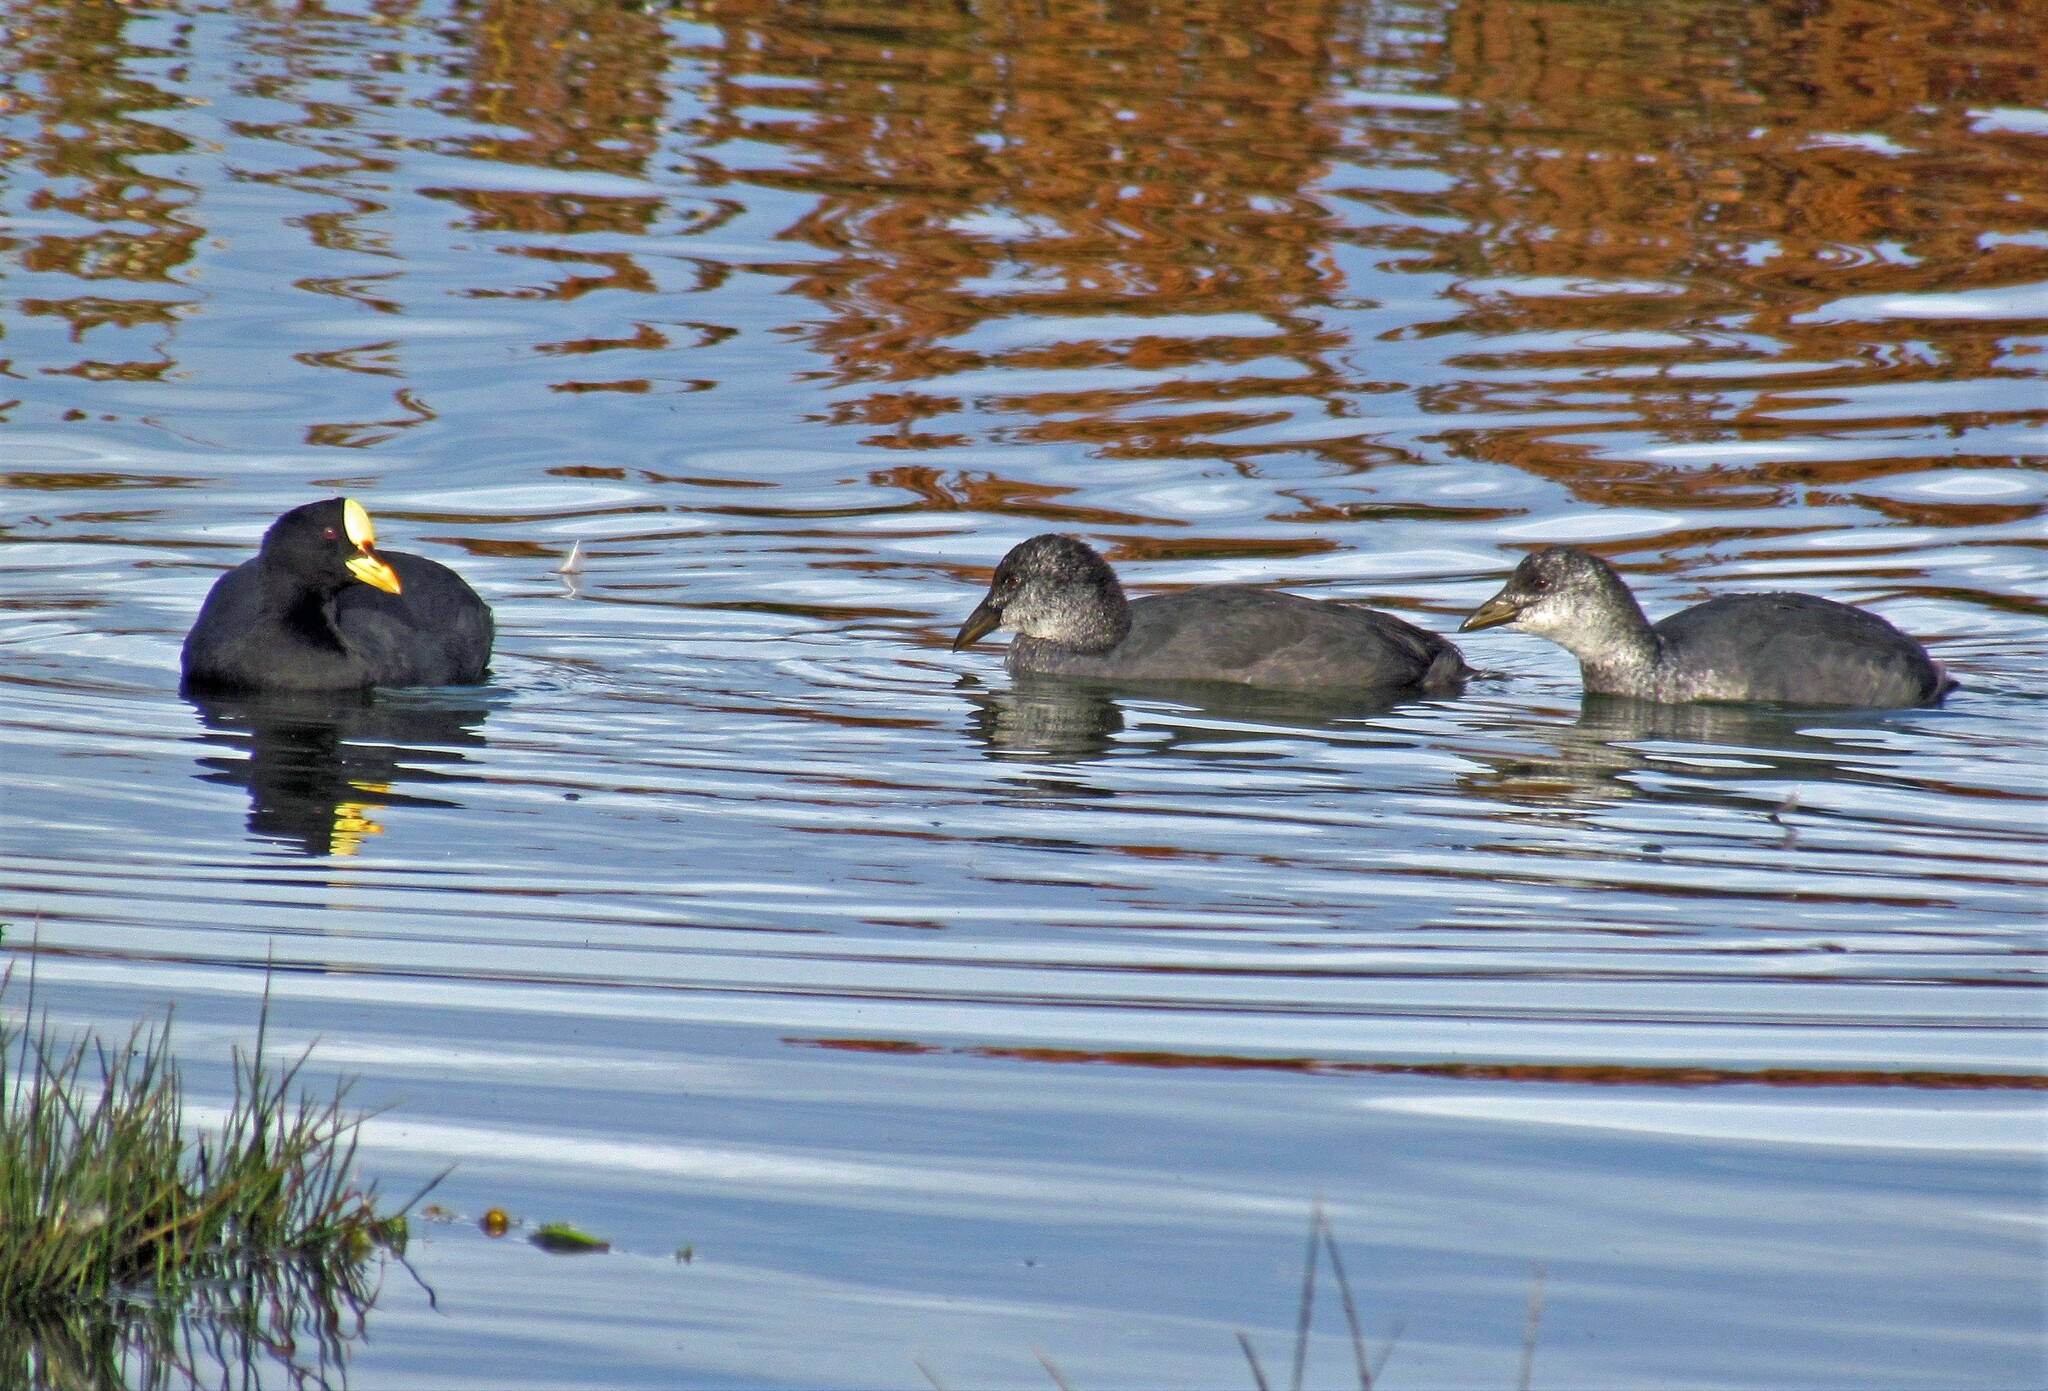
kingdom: Animalia
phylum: Chordata
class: Aves
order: Gruiformes
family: Rallidae
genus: Fulica
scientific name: Fulica armillata
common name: Red-gartered coot
